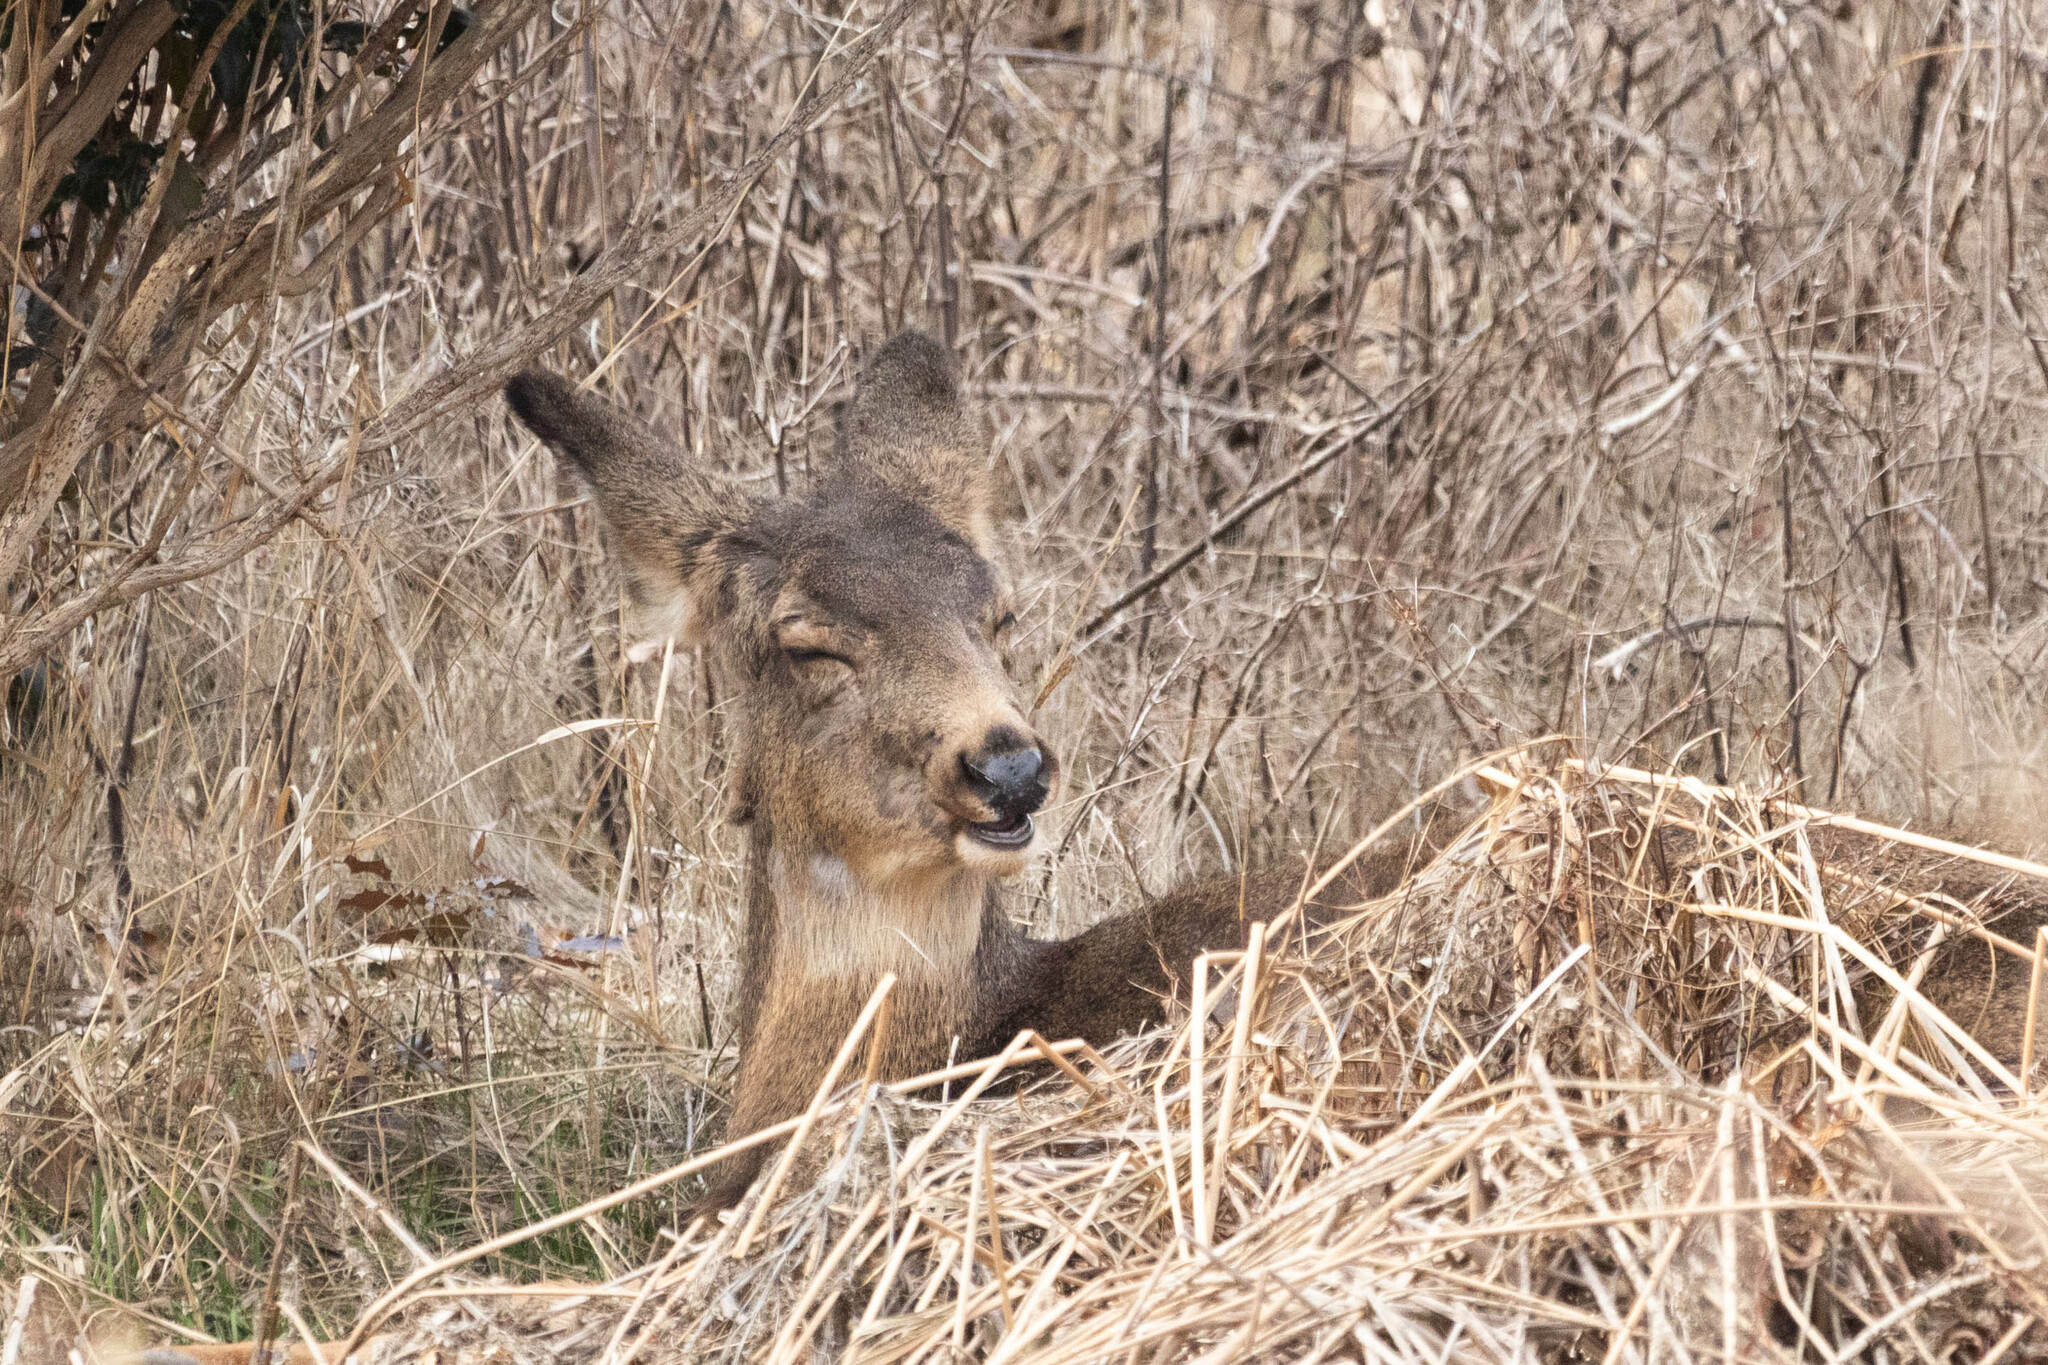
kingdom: Animalia
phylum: Chordata
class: Mammalia
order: Artiodactyla
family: Cervidae
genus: Odocoileus
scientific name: Odocoileus hemionus
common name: Mule deer
